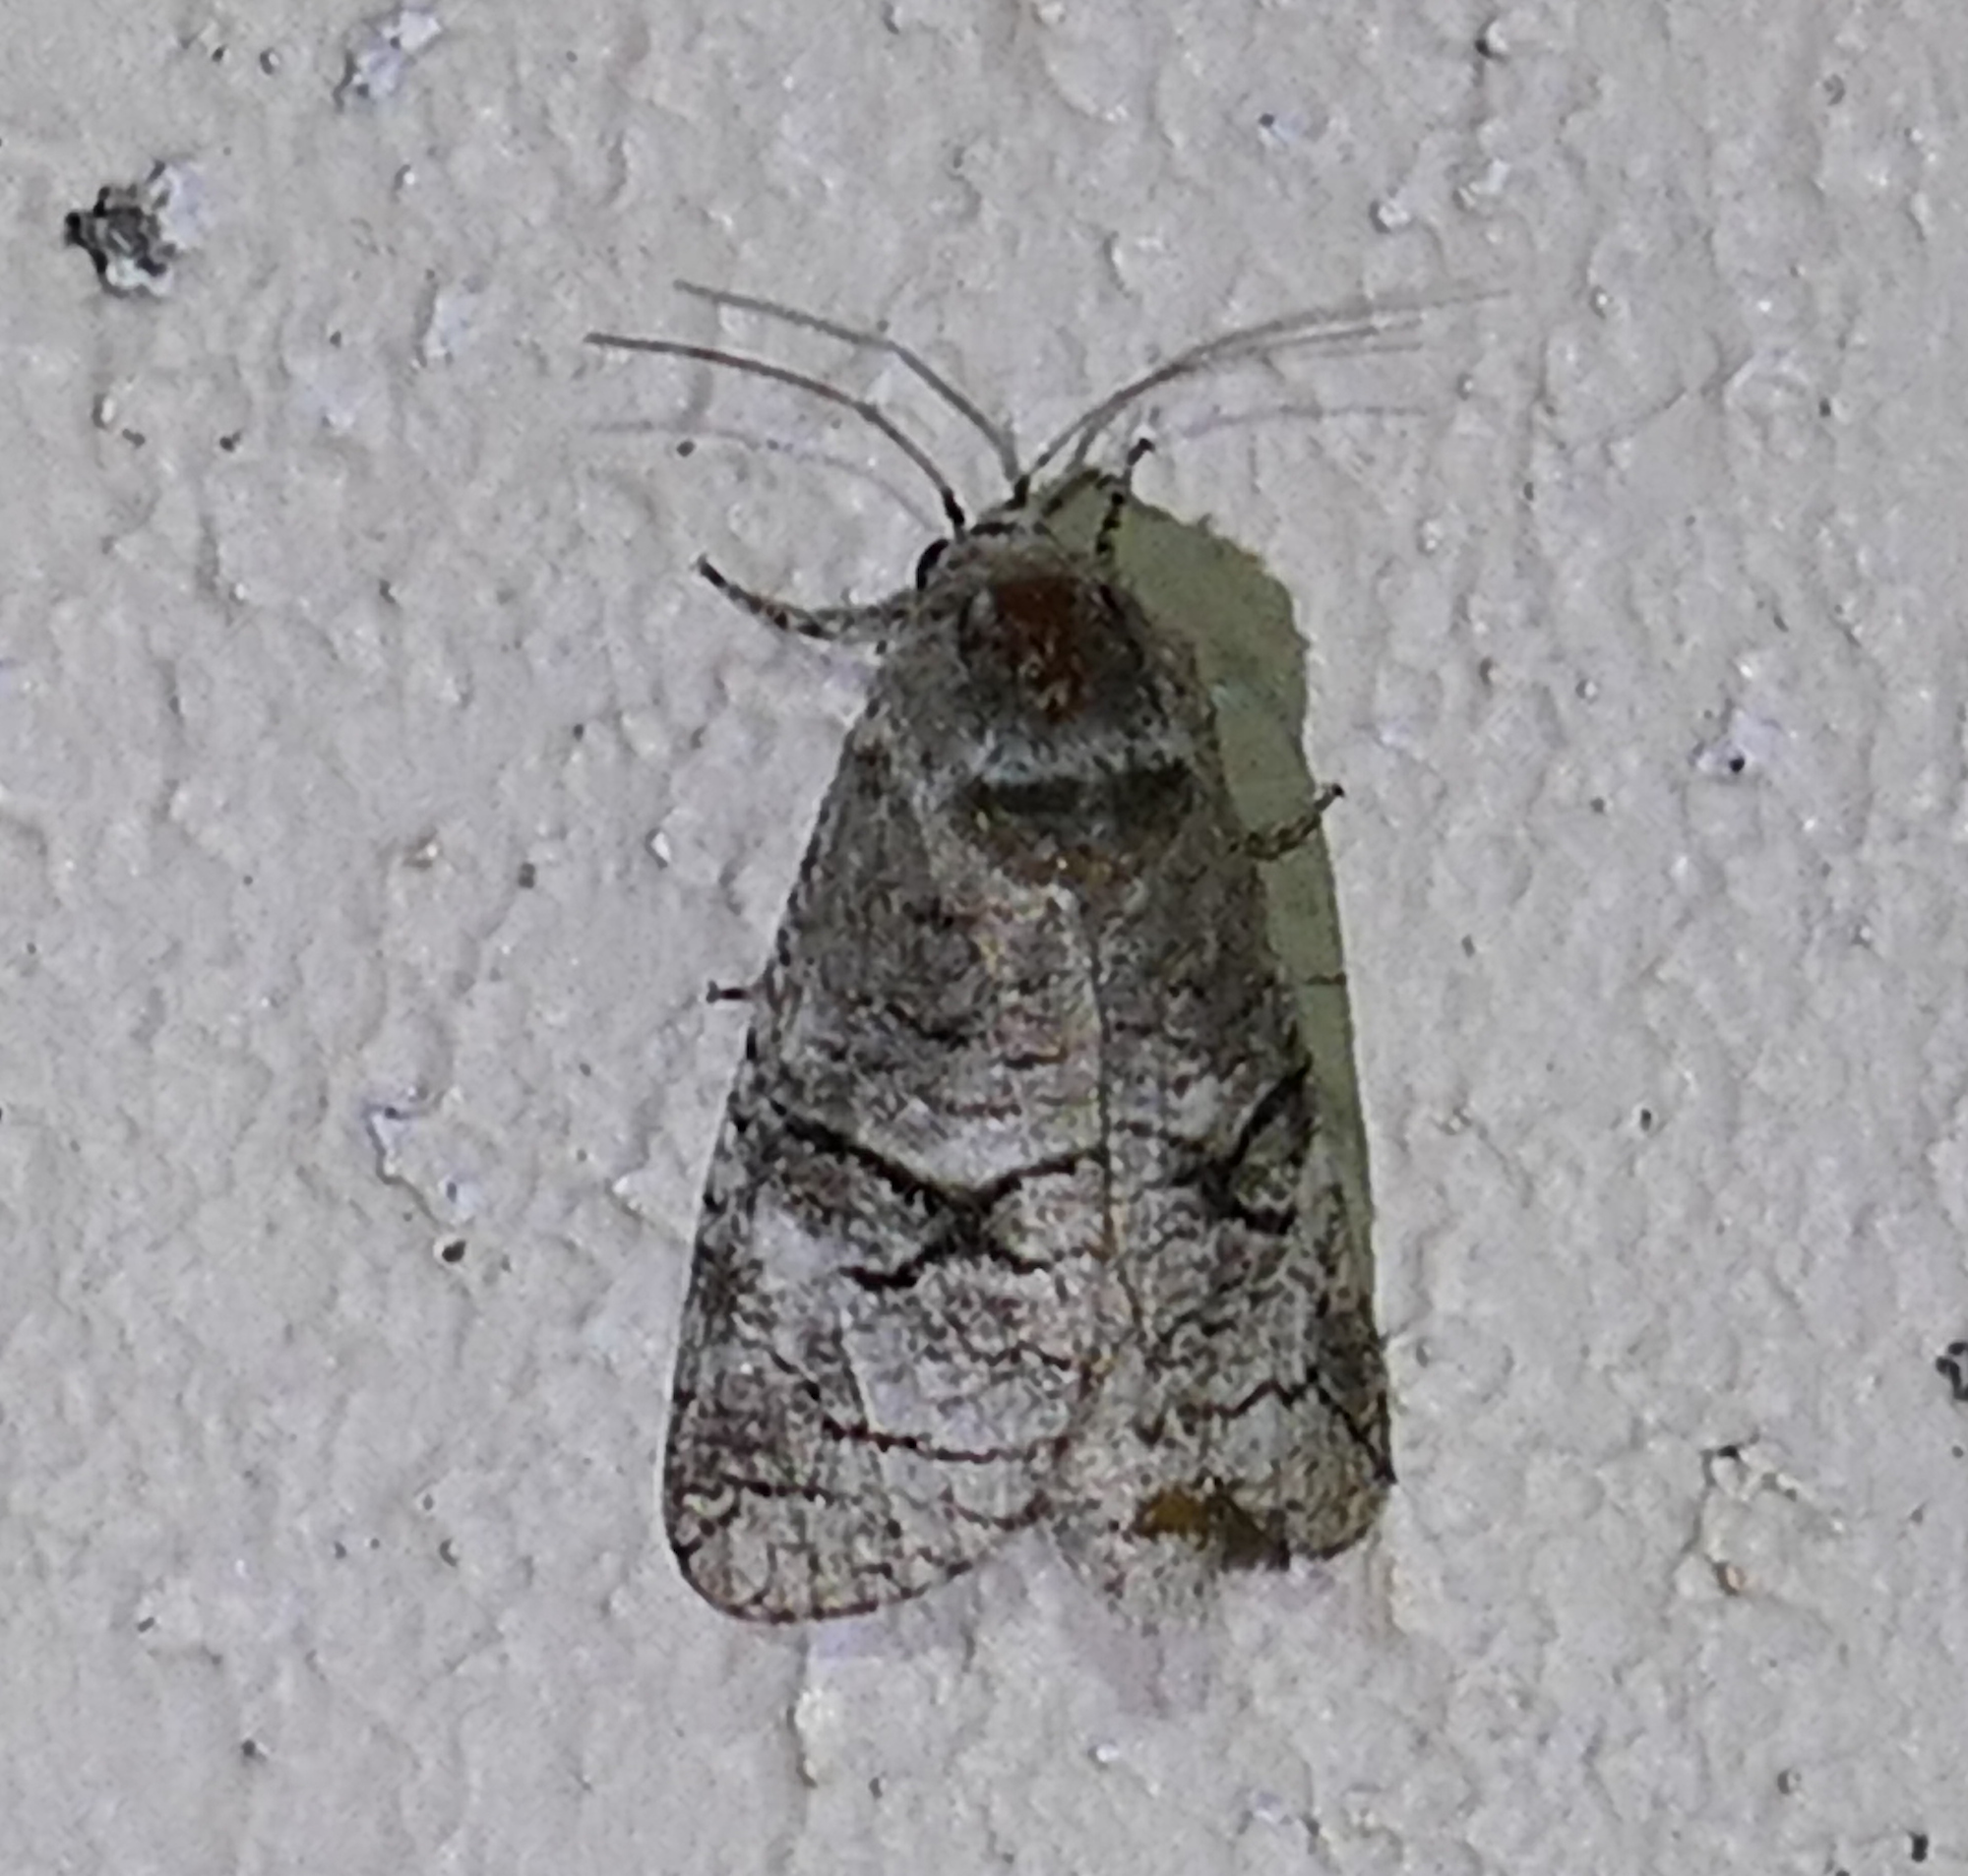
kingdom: Animalia
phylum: Arthropoda
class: Insecta
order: Lepidoptera
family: Cossidae
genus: Fania
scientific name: Fania nanus
